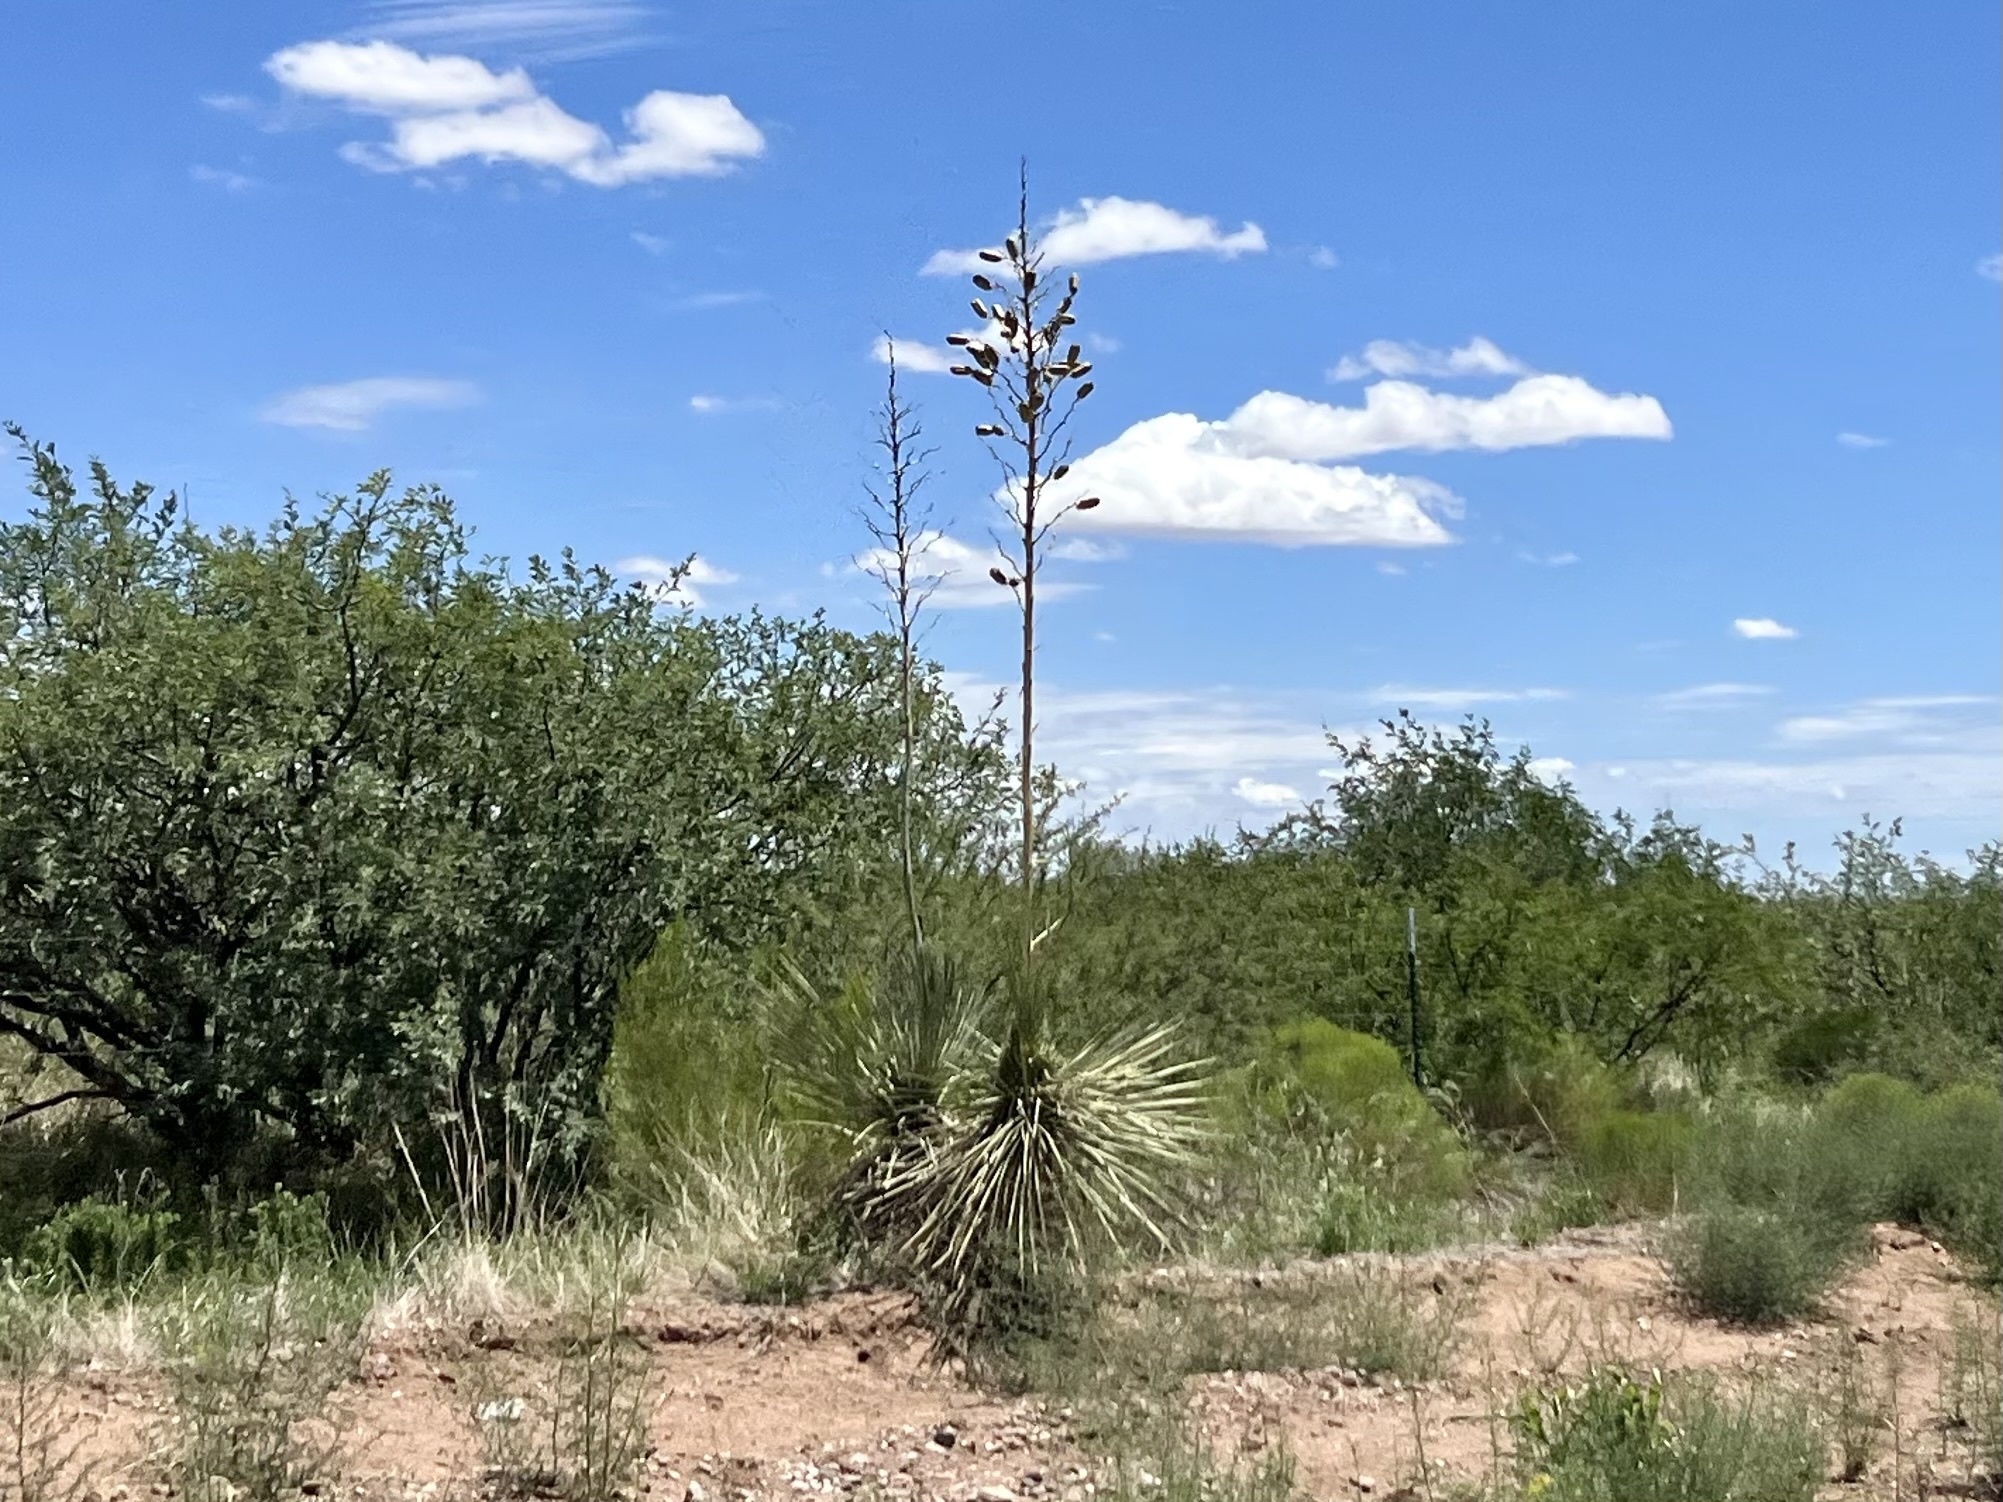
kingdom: Plantae
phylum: Tracheophyta
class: Liliopsida
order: Asparagales
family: Asparagaceae
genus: Yucca
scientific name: Yucca elata
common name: Palmella
